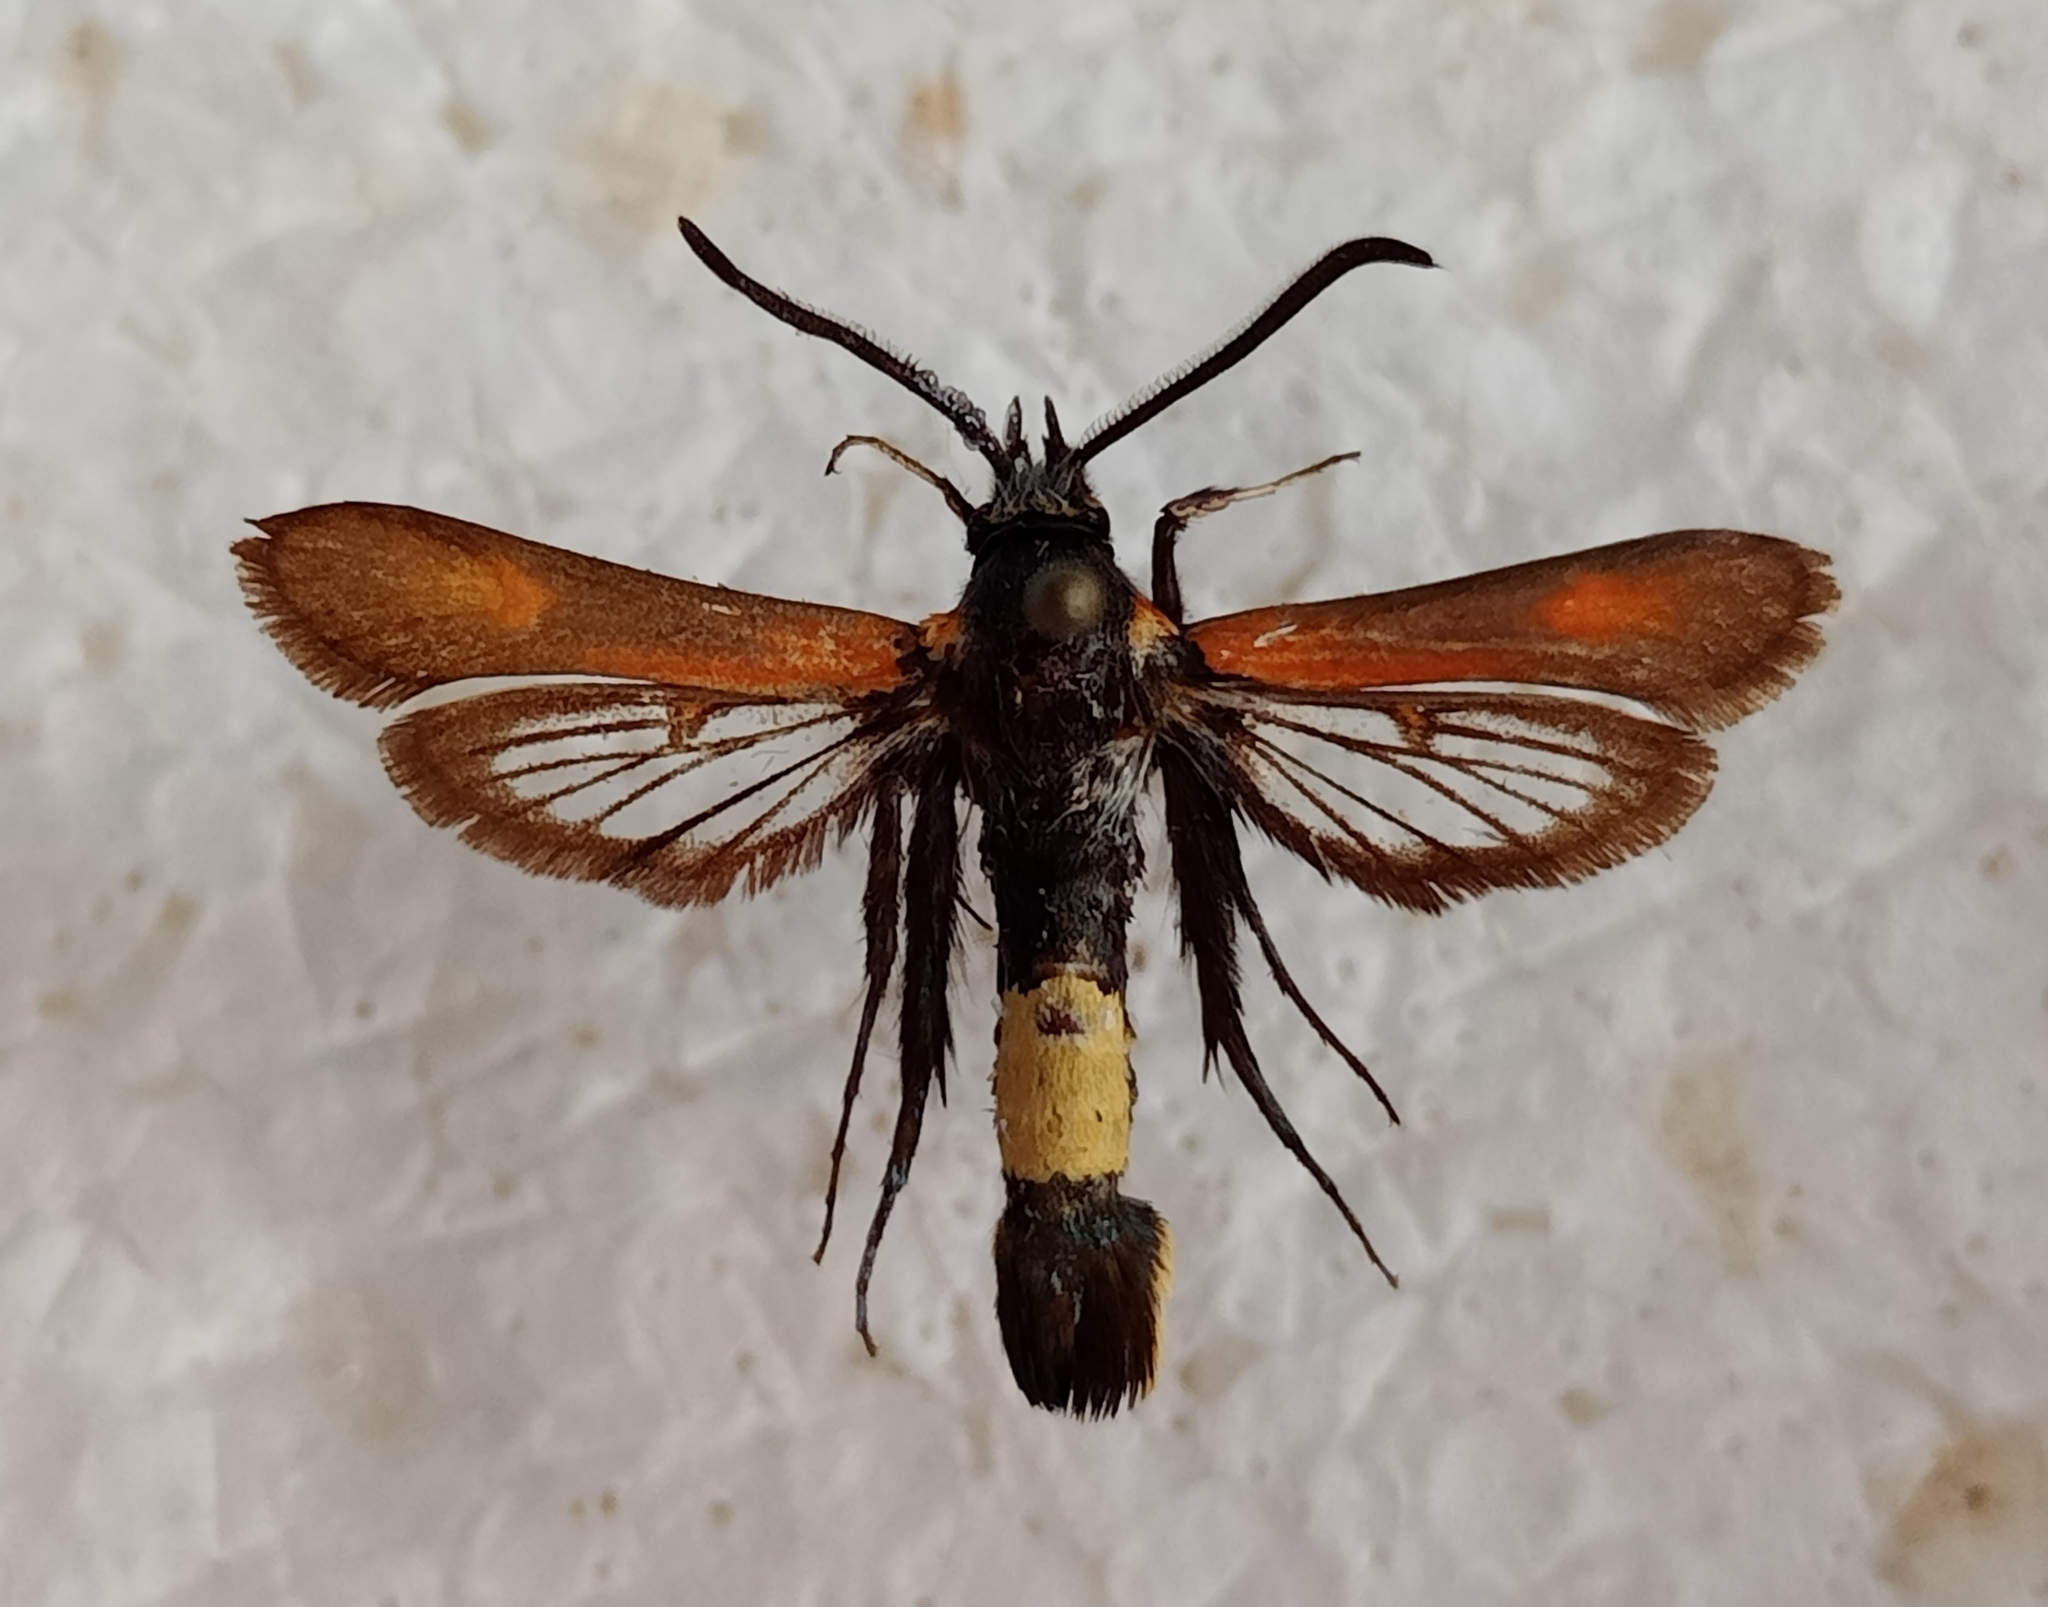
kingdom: Animalia
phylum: Arthropoda
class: Insecta
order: Lepidoptera
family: Sesiidae
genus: Bembecia
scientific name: Bembecia stiziformis
